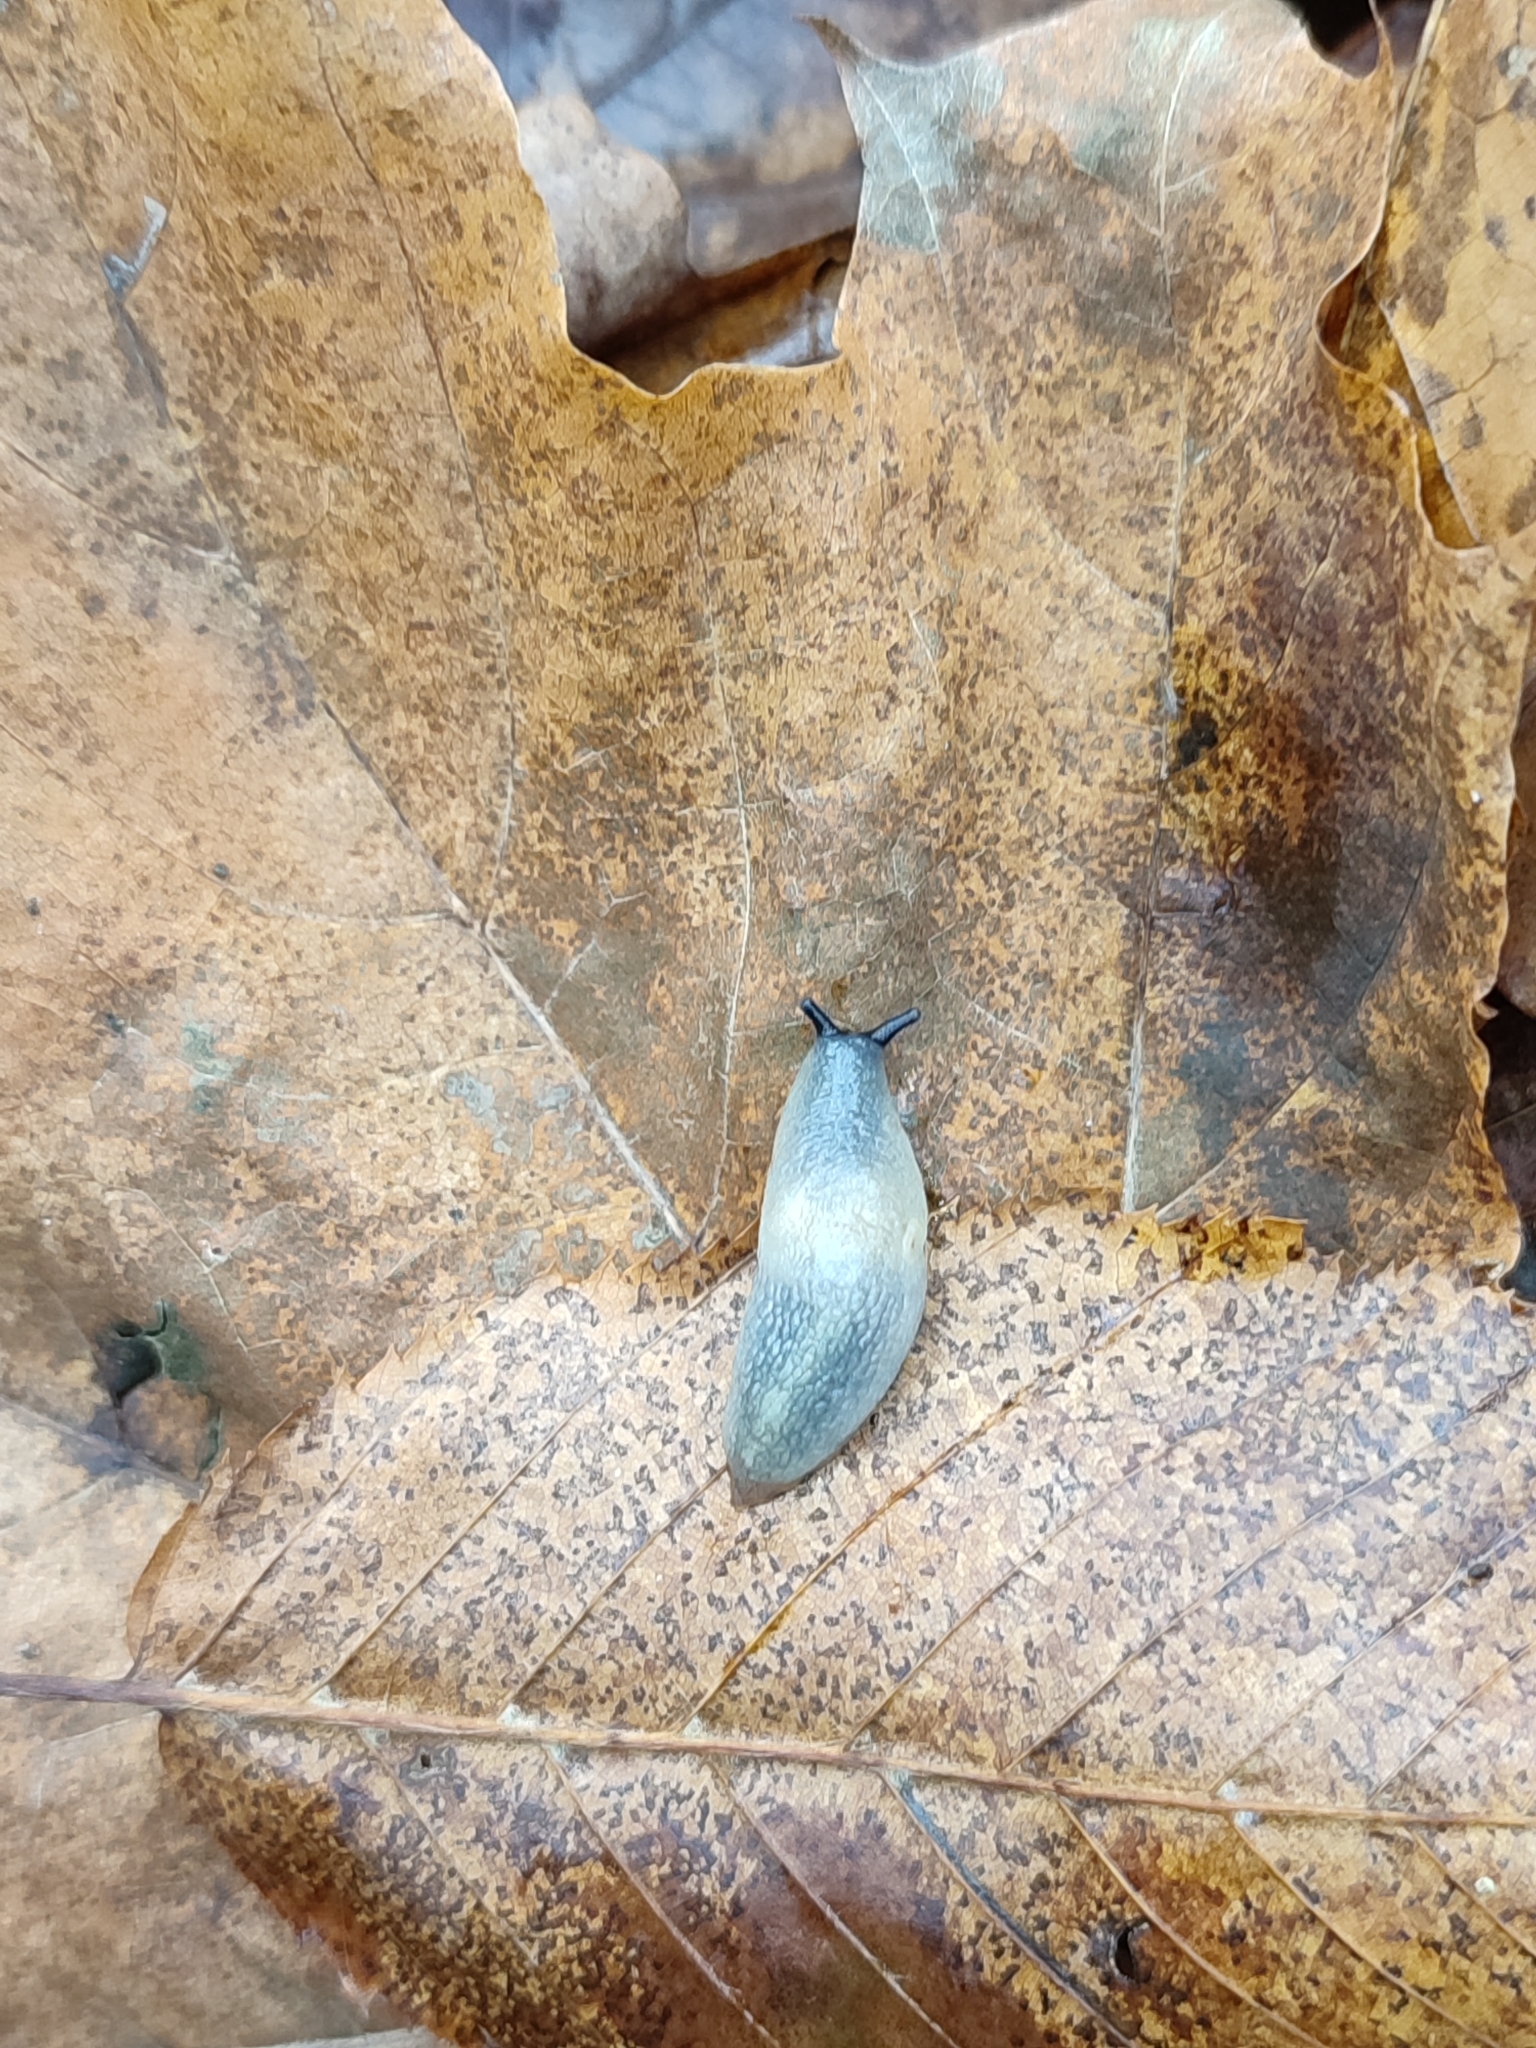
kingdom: Animalia
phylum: Mollusca
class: Gastropoda
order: Stylommatophora
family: Agriolimacidae
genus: Krynickillus
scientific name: Krynickillus melanocephalus
